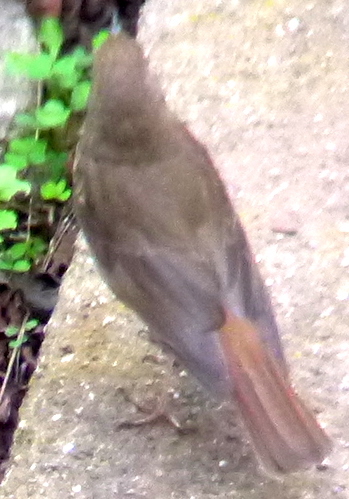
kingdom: Animalia
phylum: Chordata
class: Aves
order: Passeriformes
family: Turdidae
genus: Catharus
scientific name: Catharus guttatus
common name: Hermit thrush
